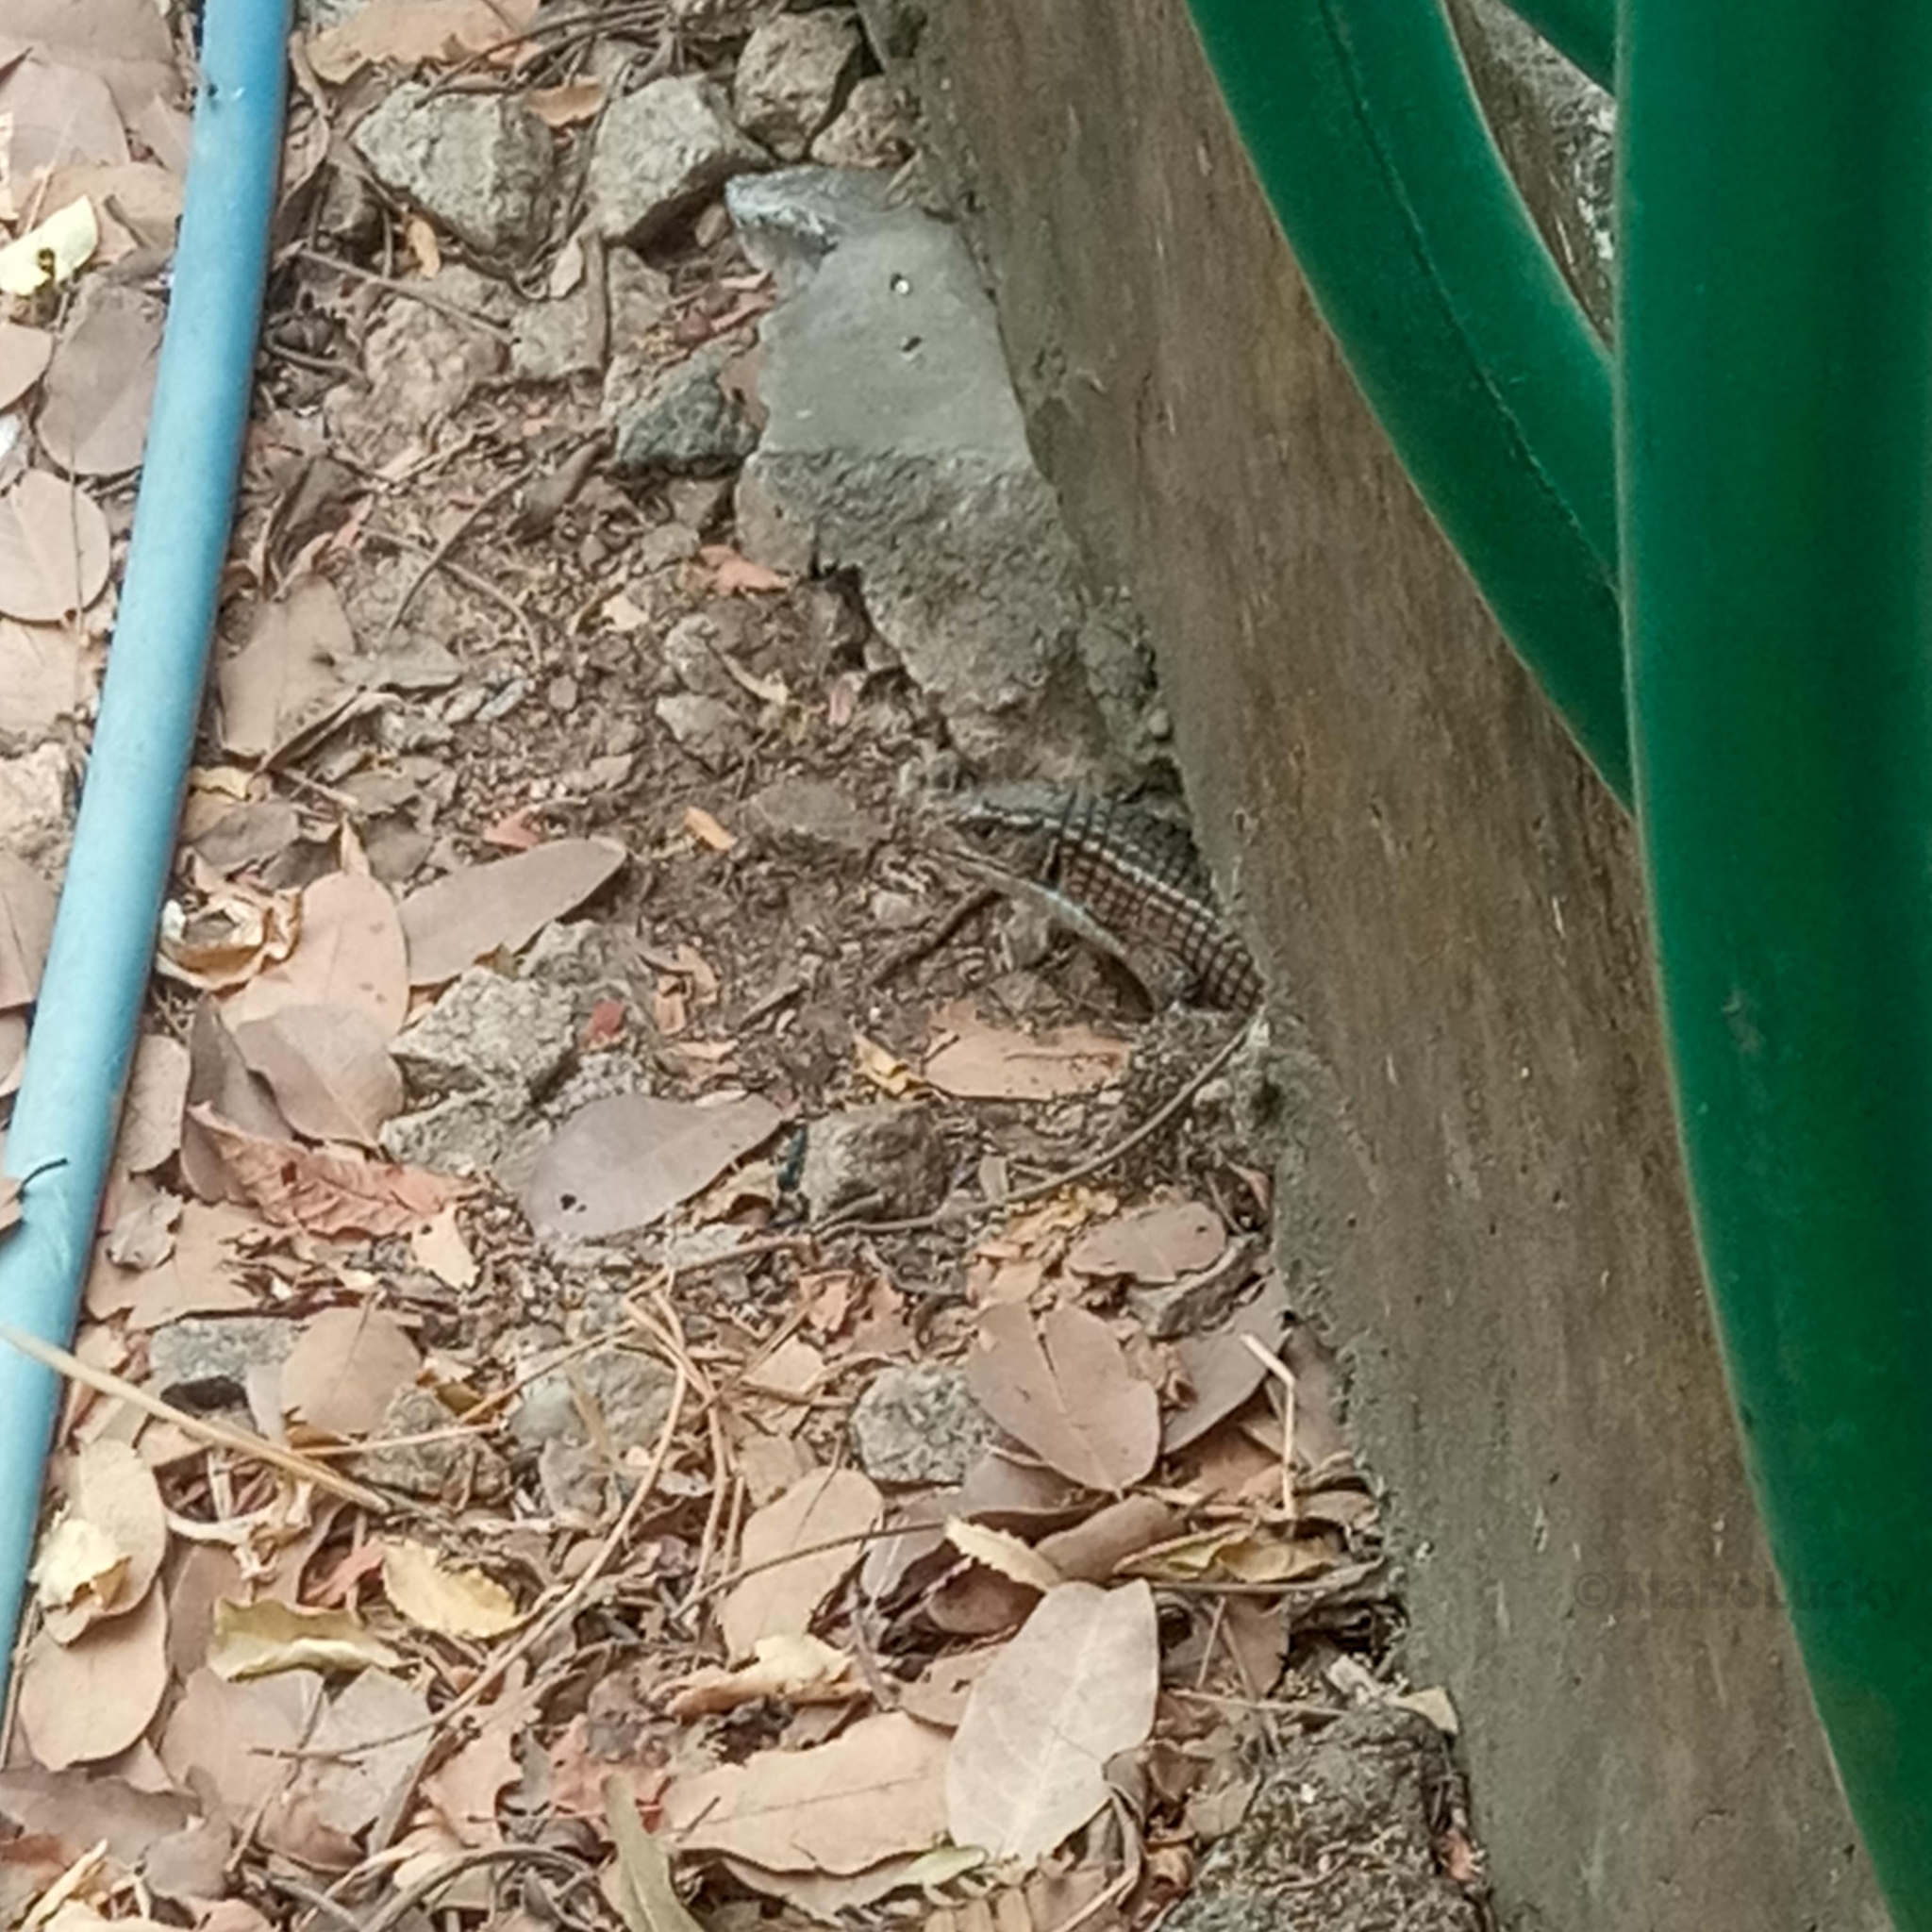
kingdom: Animalia
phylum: Chordata
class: Squamata
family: Gerrhosauridae
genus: Broadleysaurus
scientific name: Broadleysaurus major
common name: Rough-scaled plated lizard
